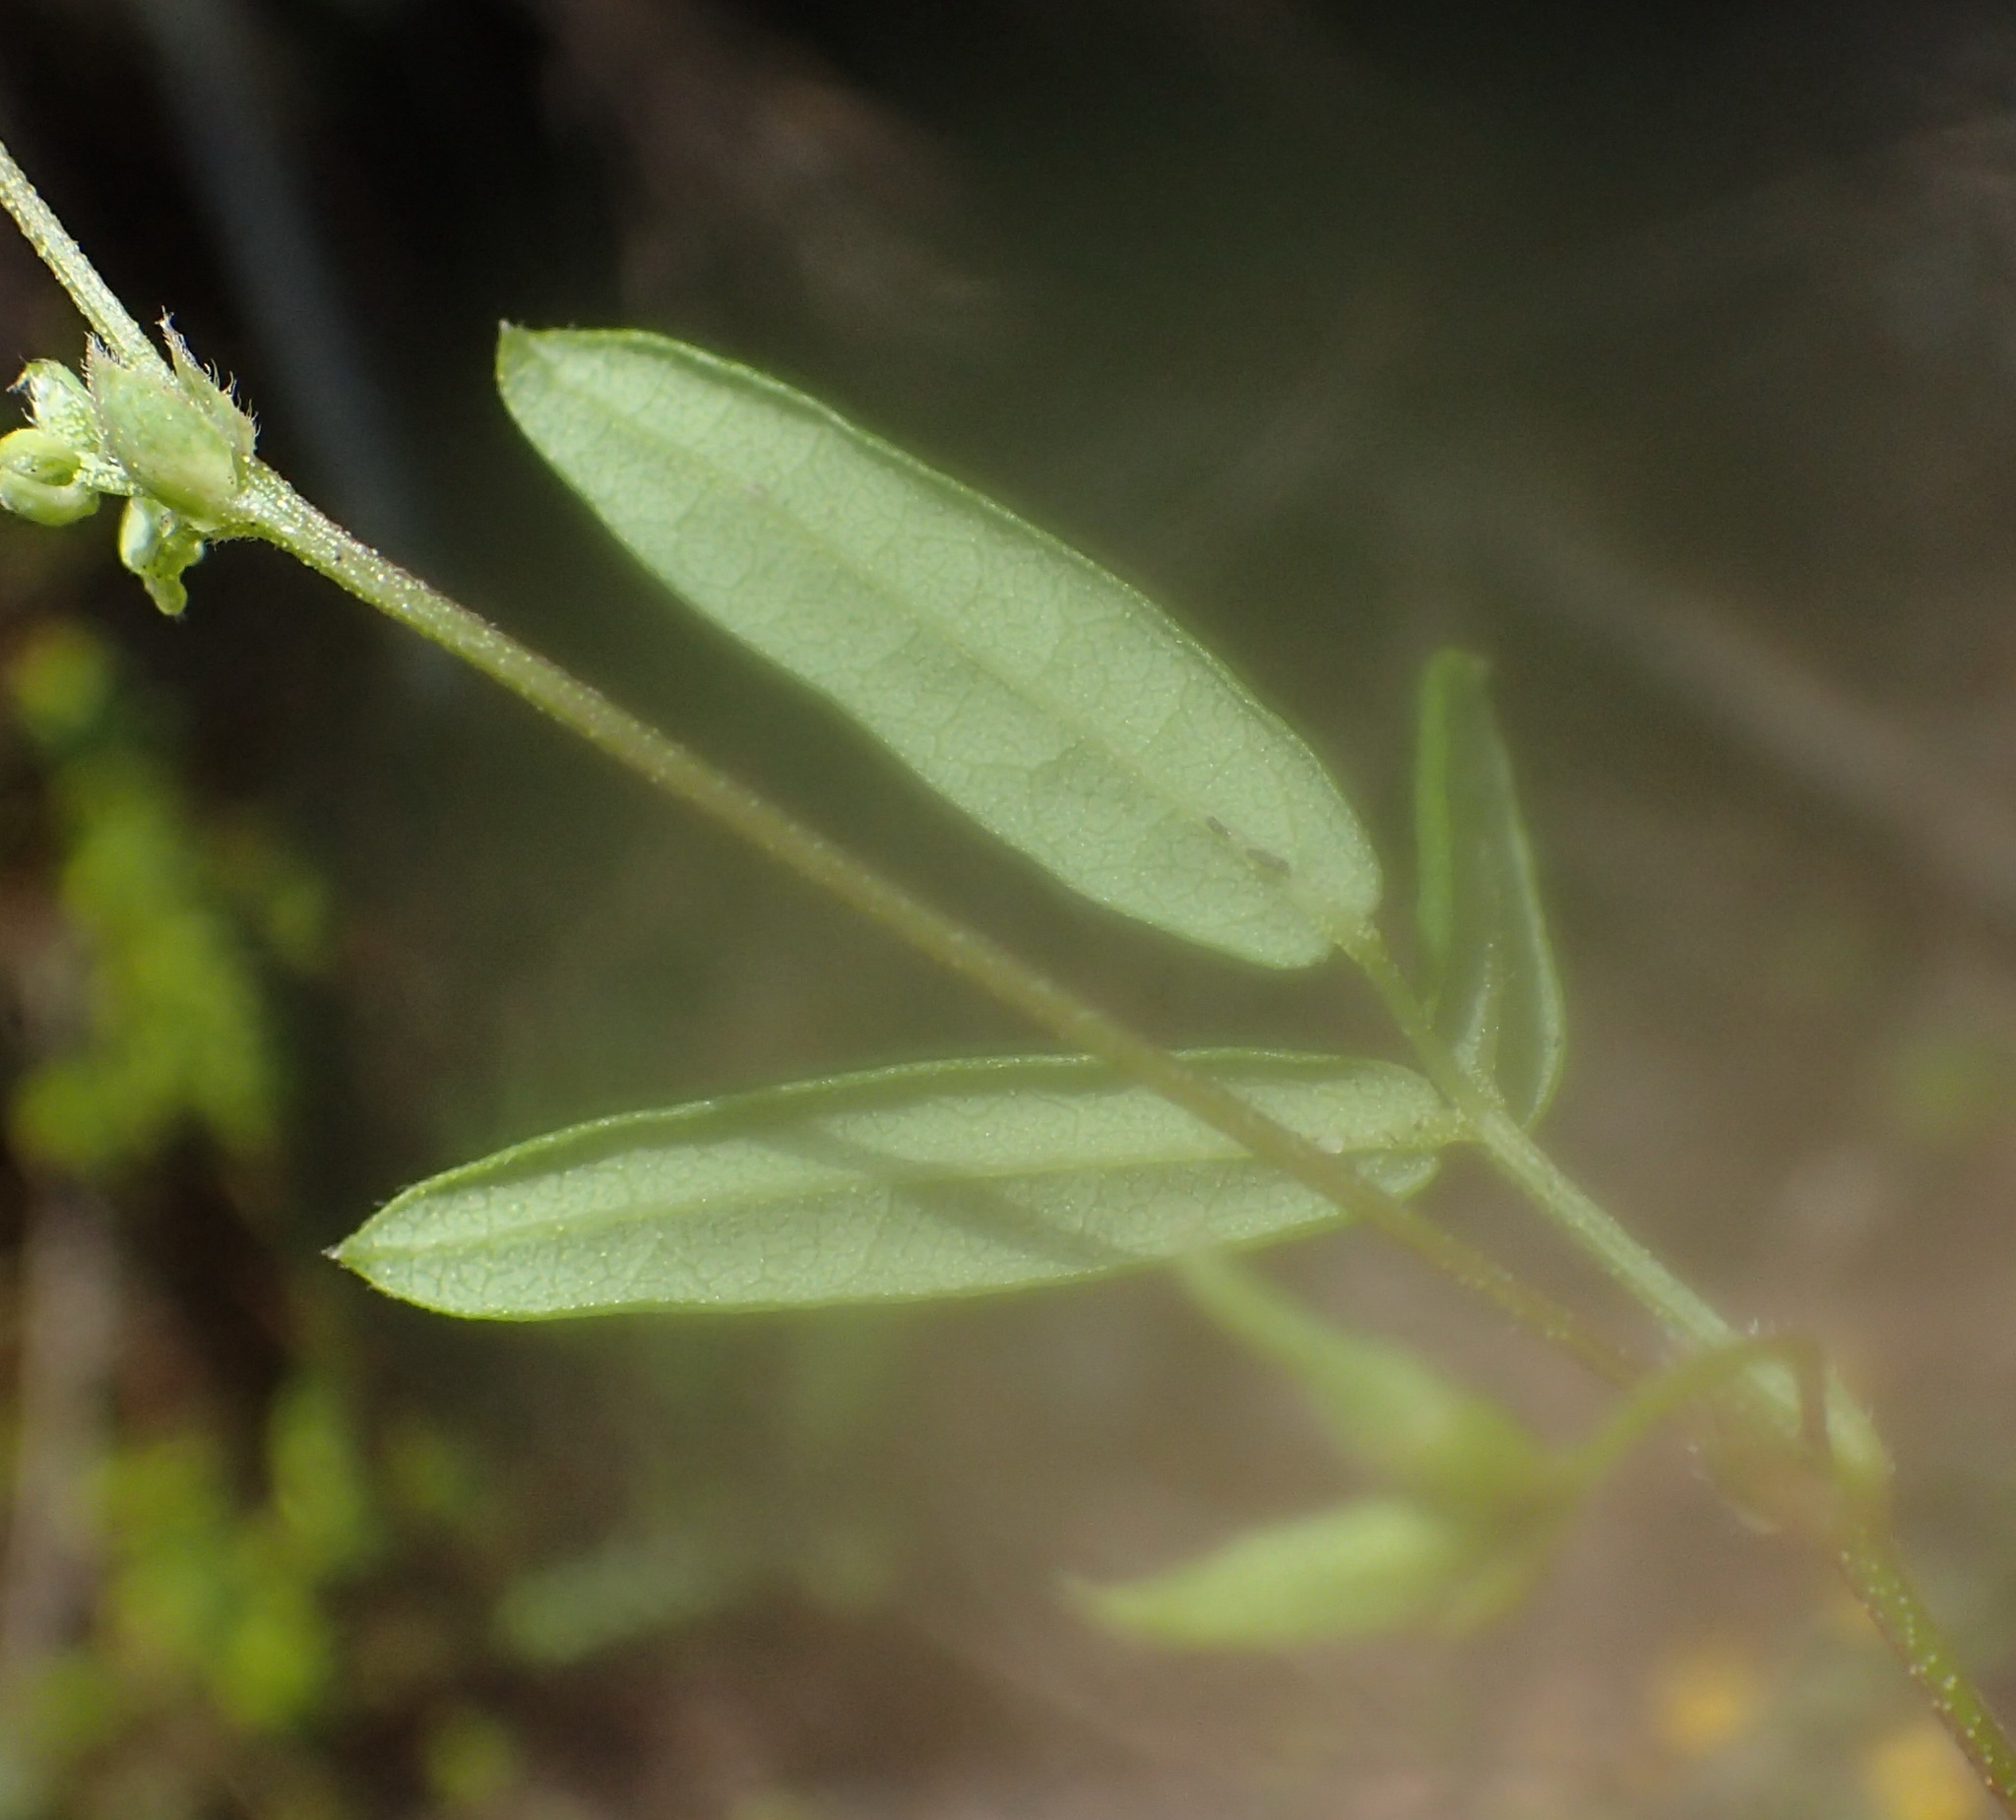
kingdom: Plantae
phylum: Tracheophyta
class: Magnoliopsida
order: Fabales
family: Fabaceae
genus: Rhynchosia
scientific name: Rhynchosia leucoscias
